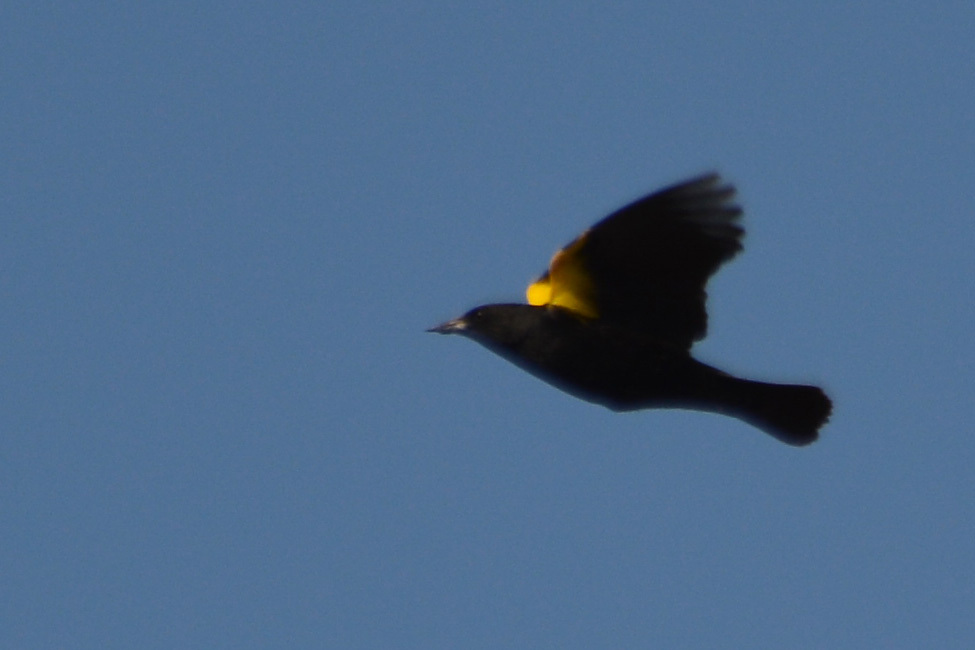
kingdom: Animalia
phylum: Chordata
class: Aves
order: Passeriformes
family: Icteridae
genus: Agelasticus
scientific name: Agelasticus thilius
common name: Yellow-winged blackbird
